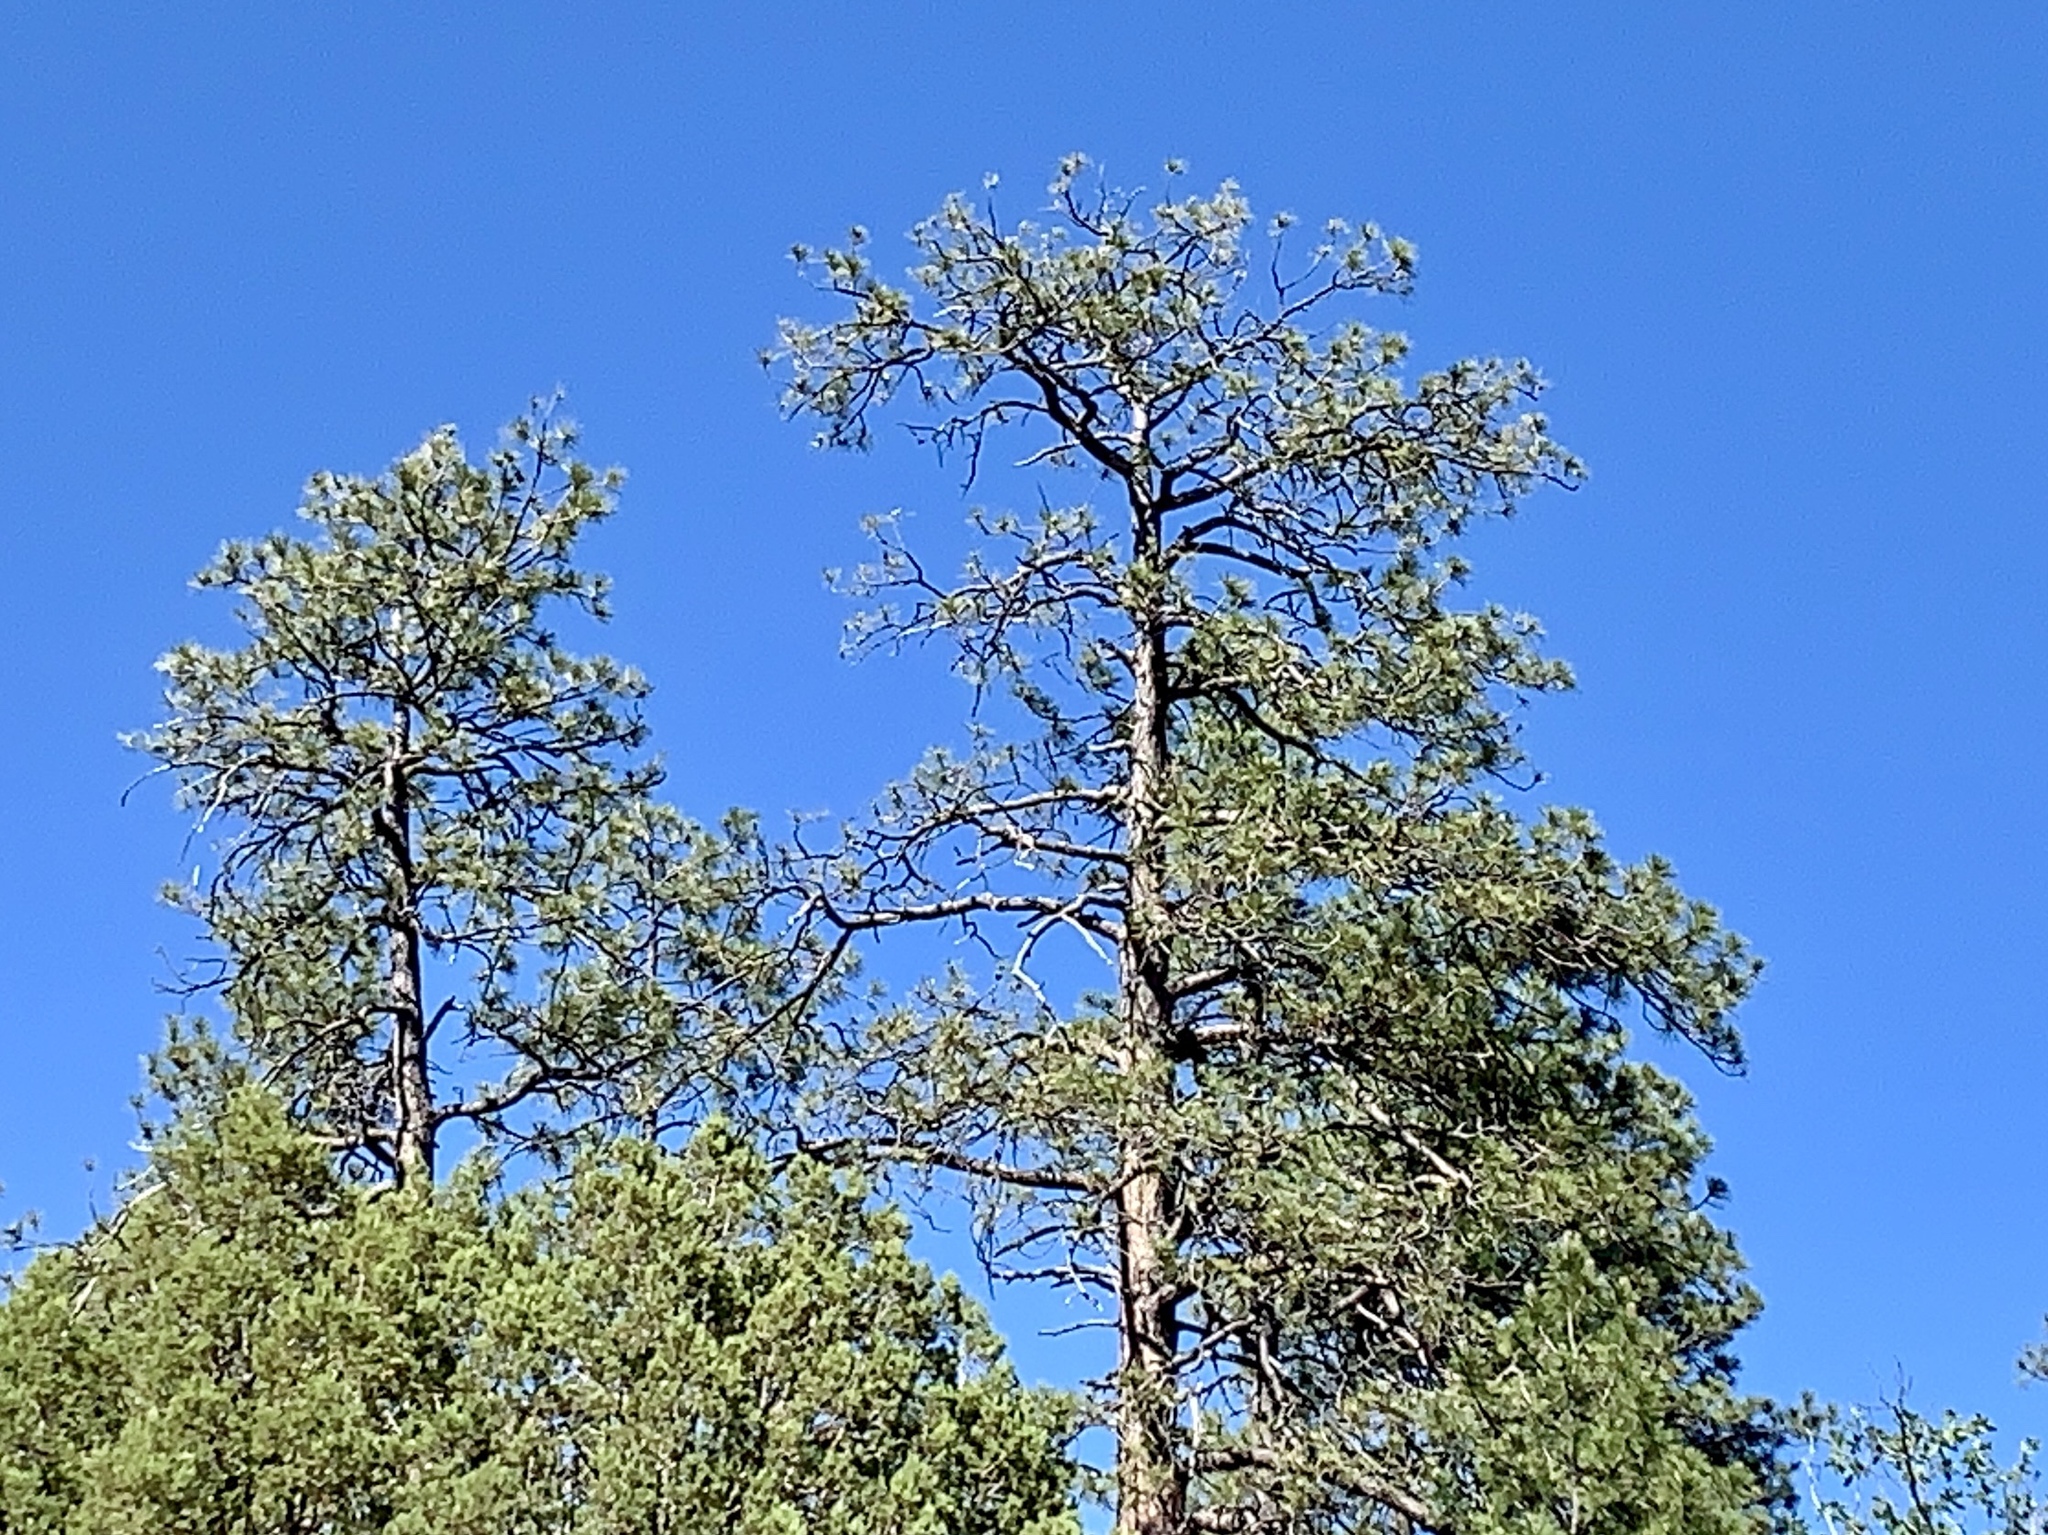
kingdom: Plantae
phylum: Tracheophyta
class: Pinopsida
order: Pinales
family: Pinaceae
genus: Pinus
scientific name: Pinus ponderosa
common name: Western yellow-pine
